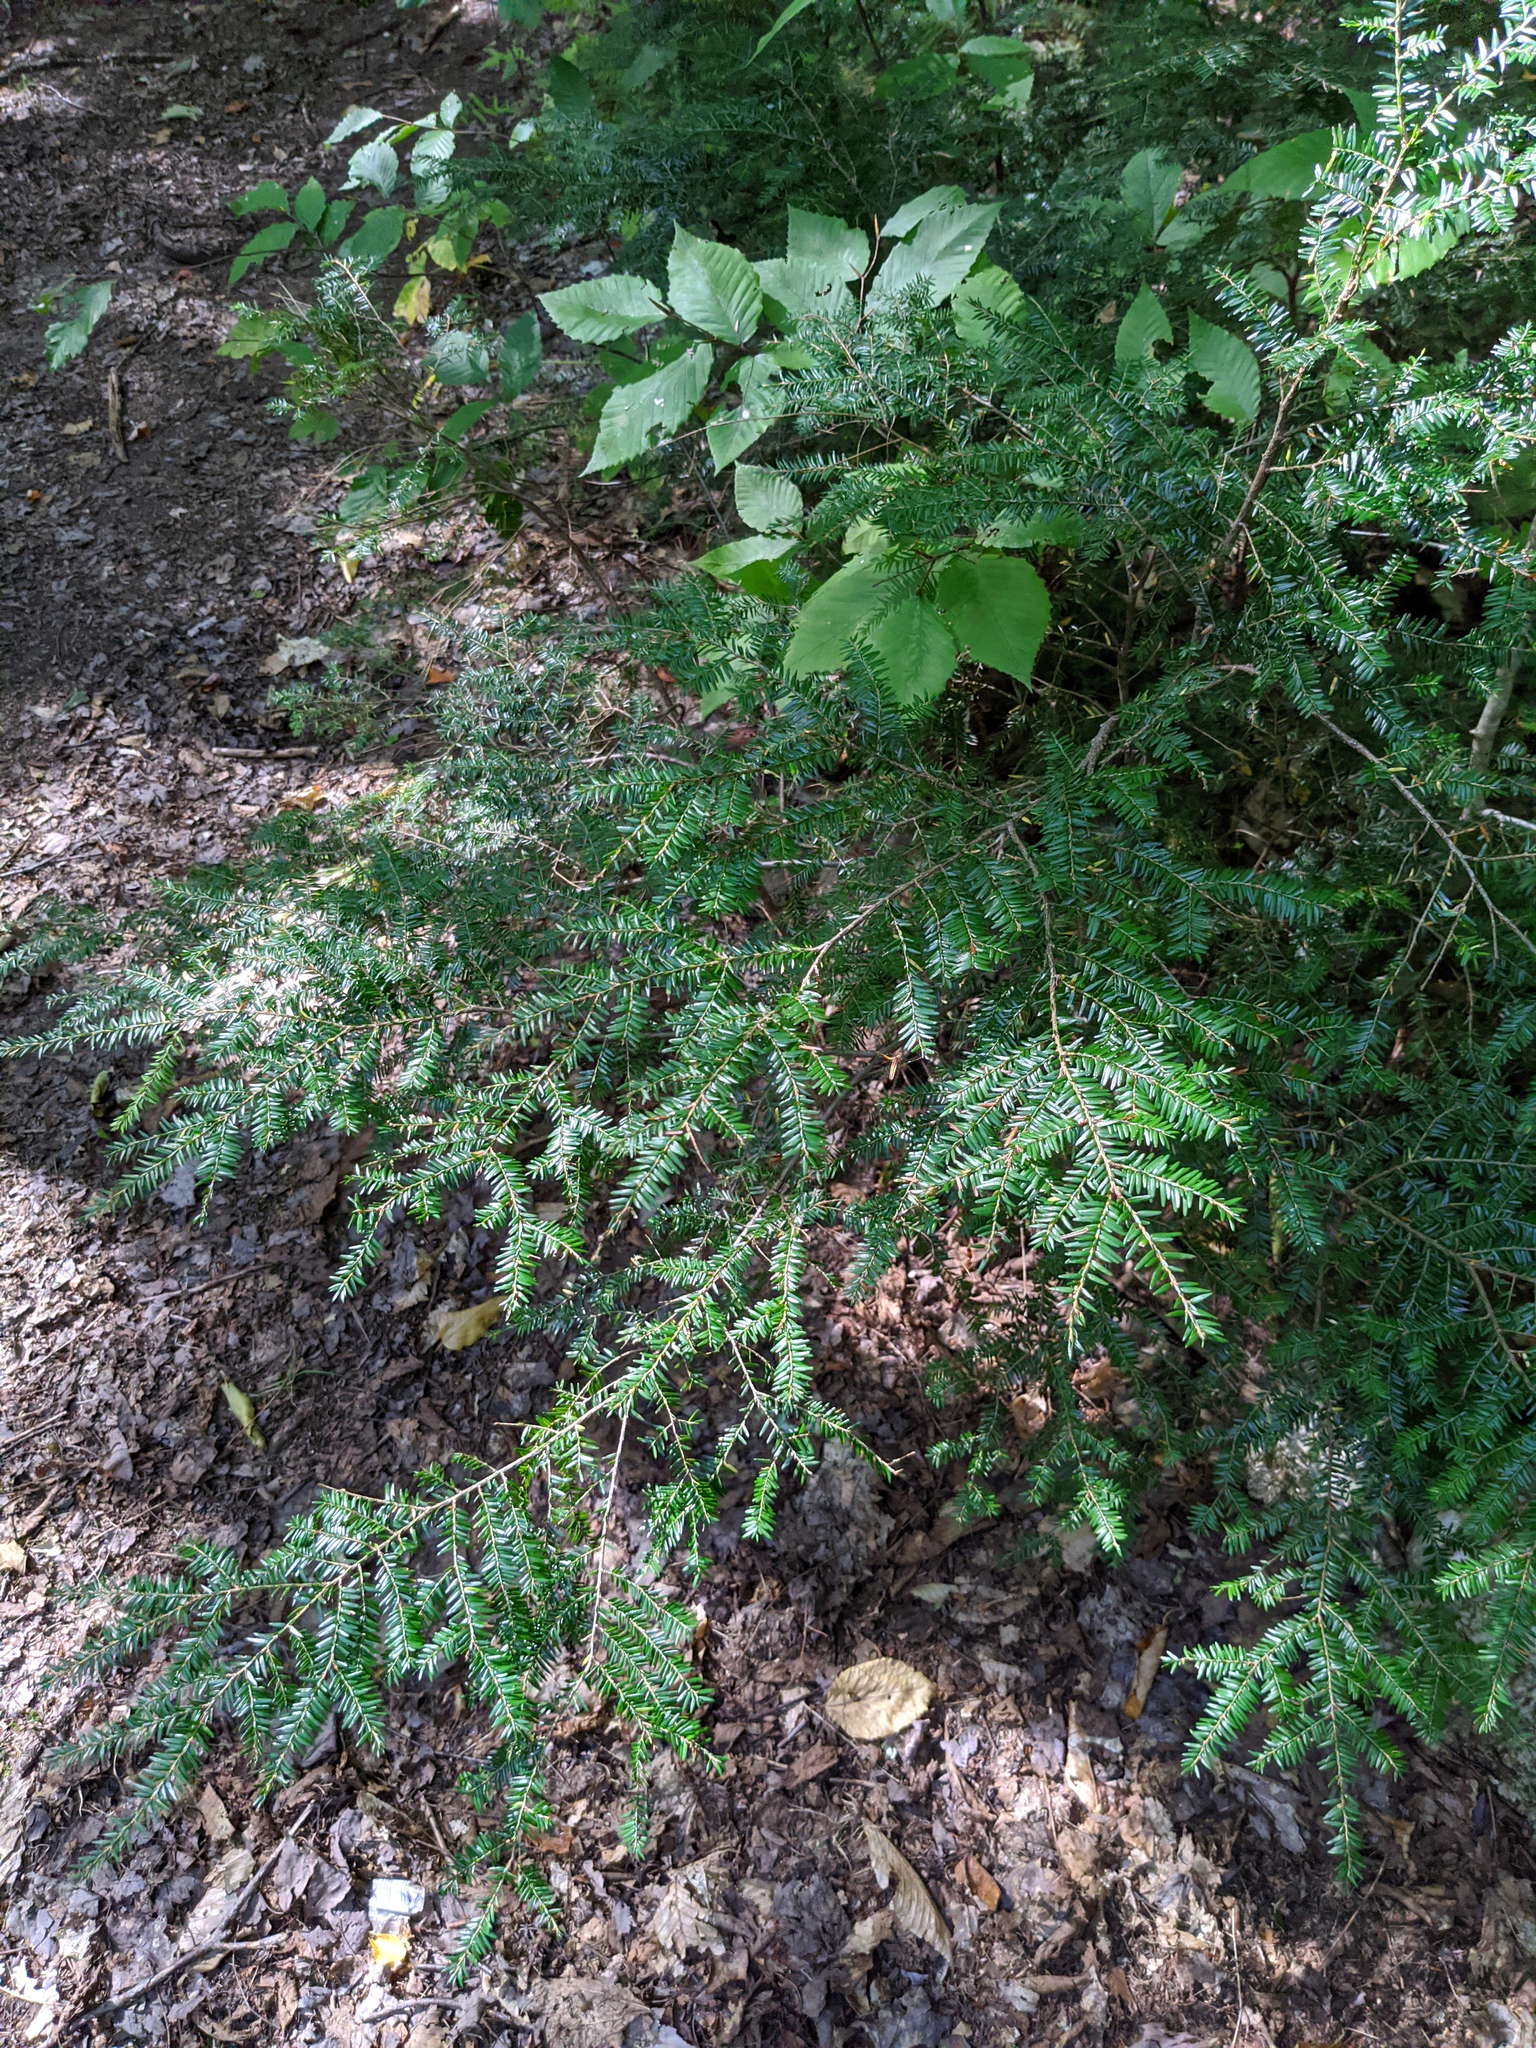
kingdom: Plantae
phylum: Tracheophyta
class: Pinopsida
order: Pinales
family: Pinaceae
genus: Tsuga
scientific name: Tsuga canadensis
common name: Eastern hemlock
